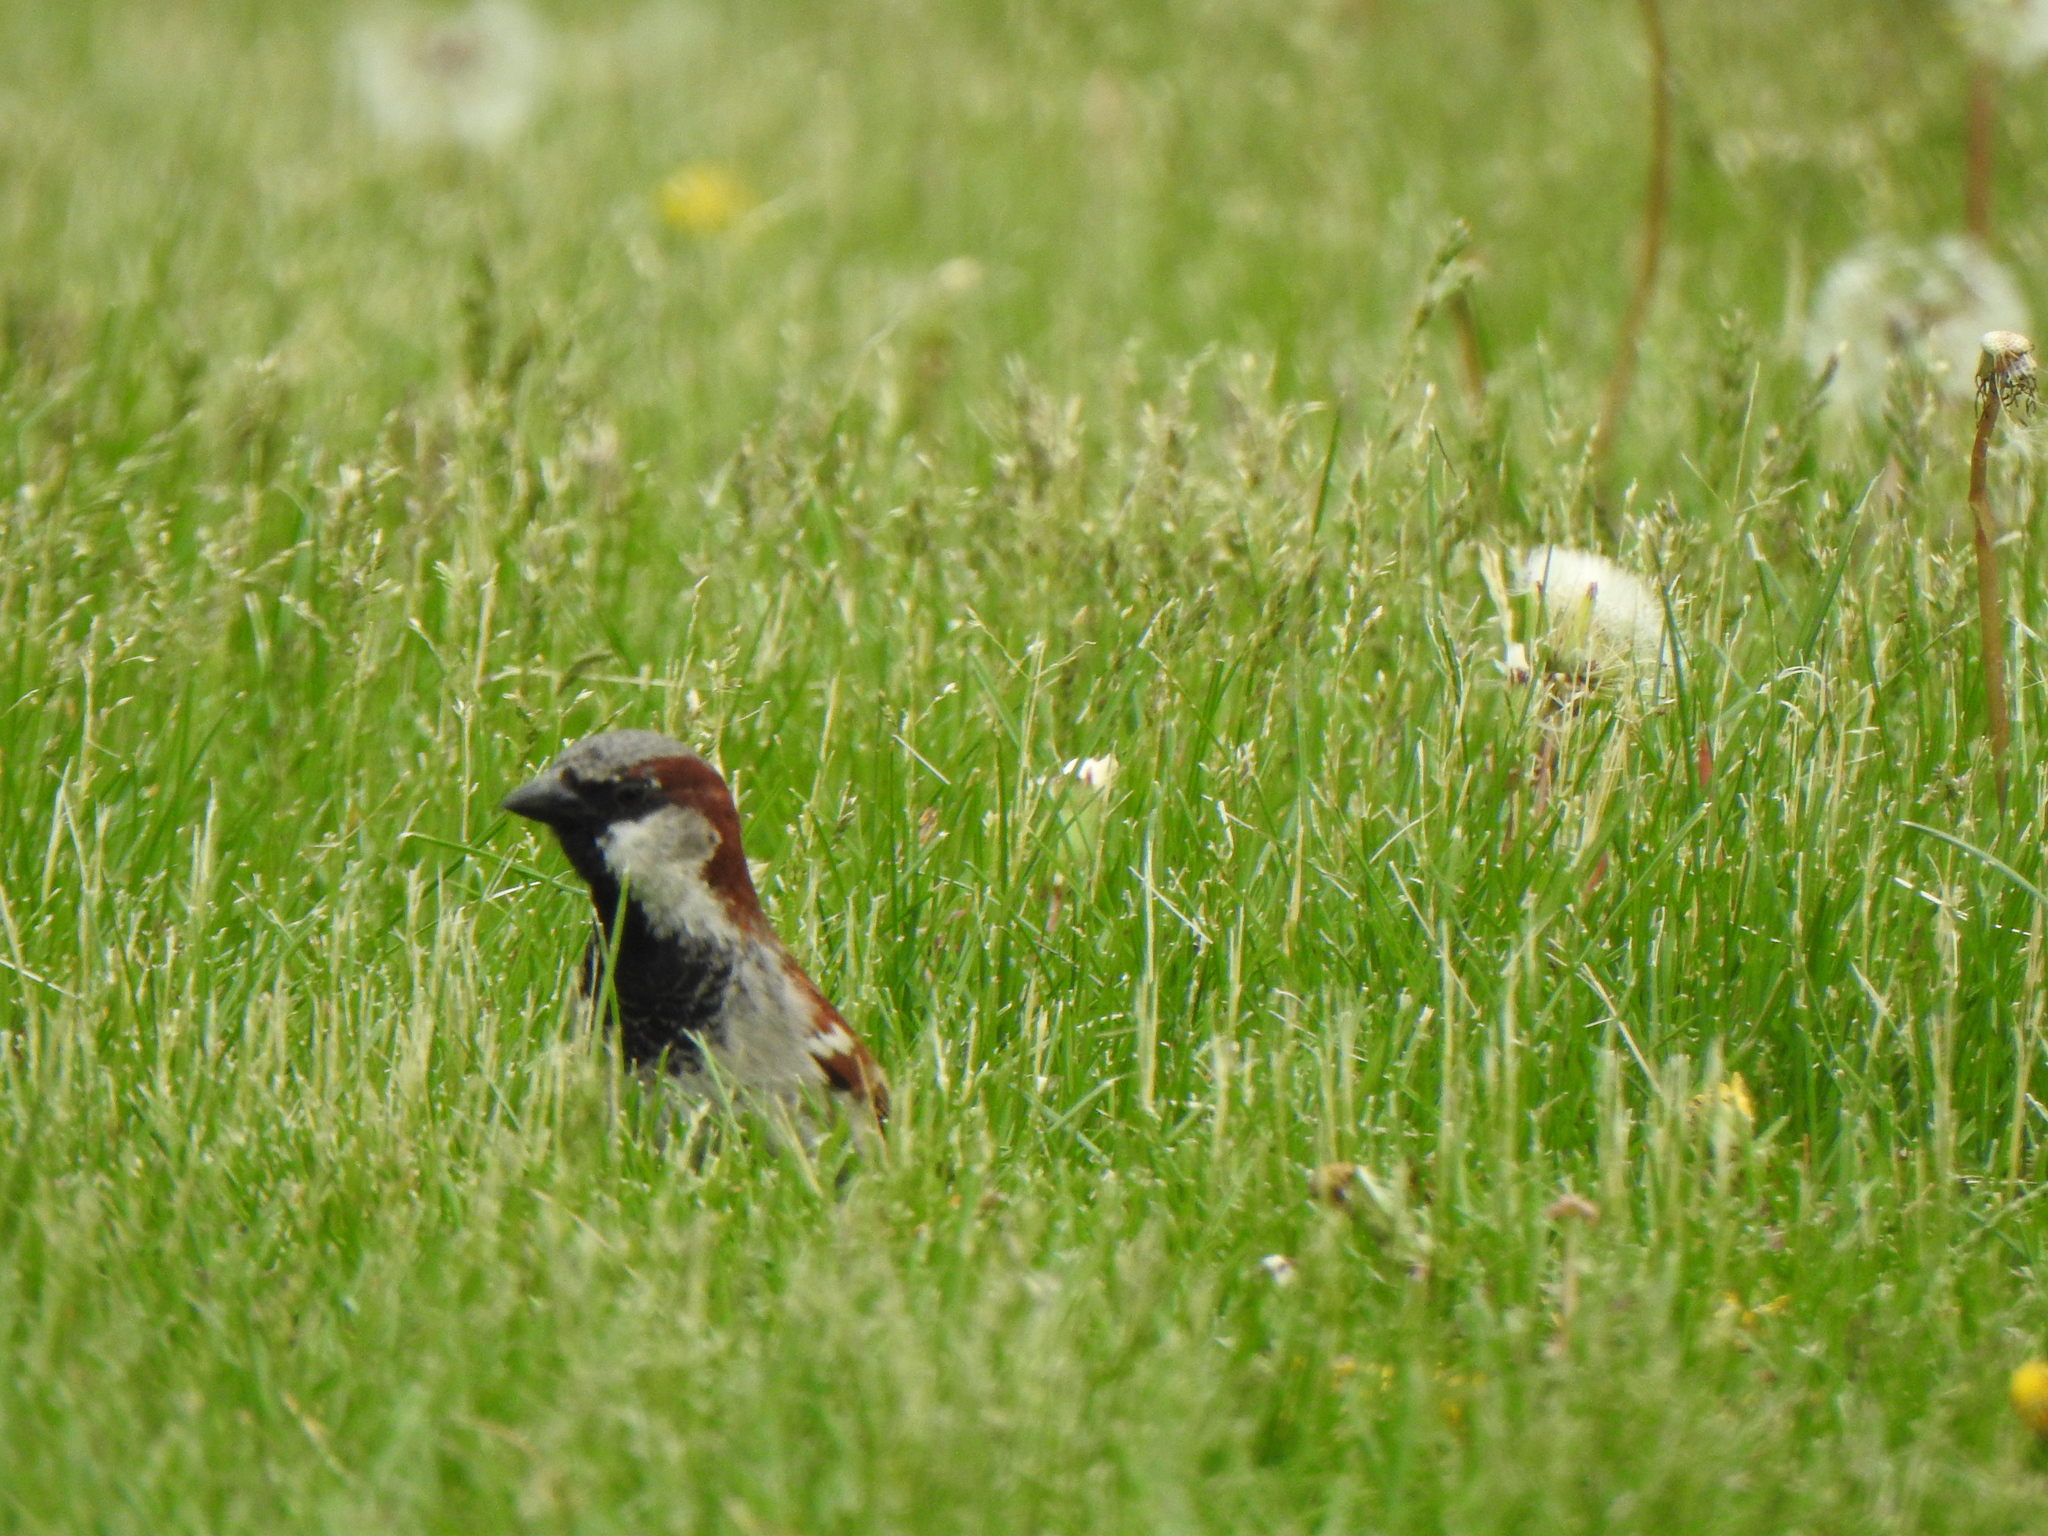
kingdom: Animalia
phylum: Chordata
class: Aves
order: Passeriformes
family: Passeridae
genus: Passer
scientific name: Passer domesticus
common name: House sparrow
